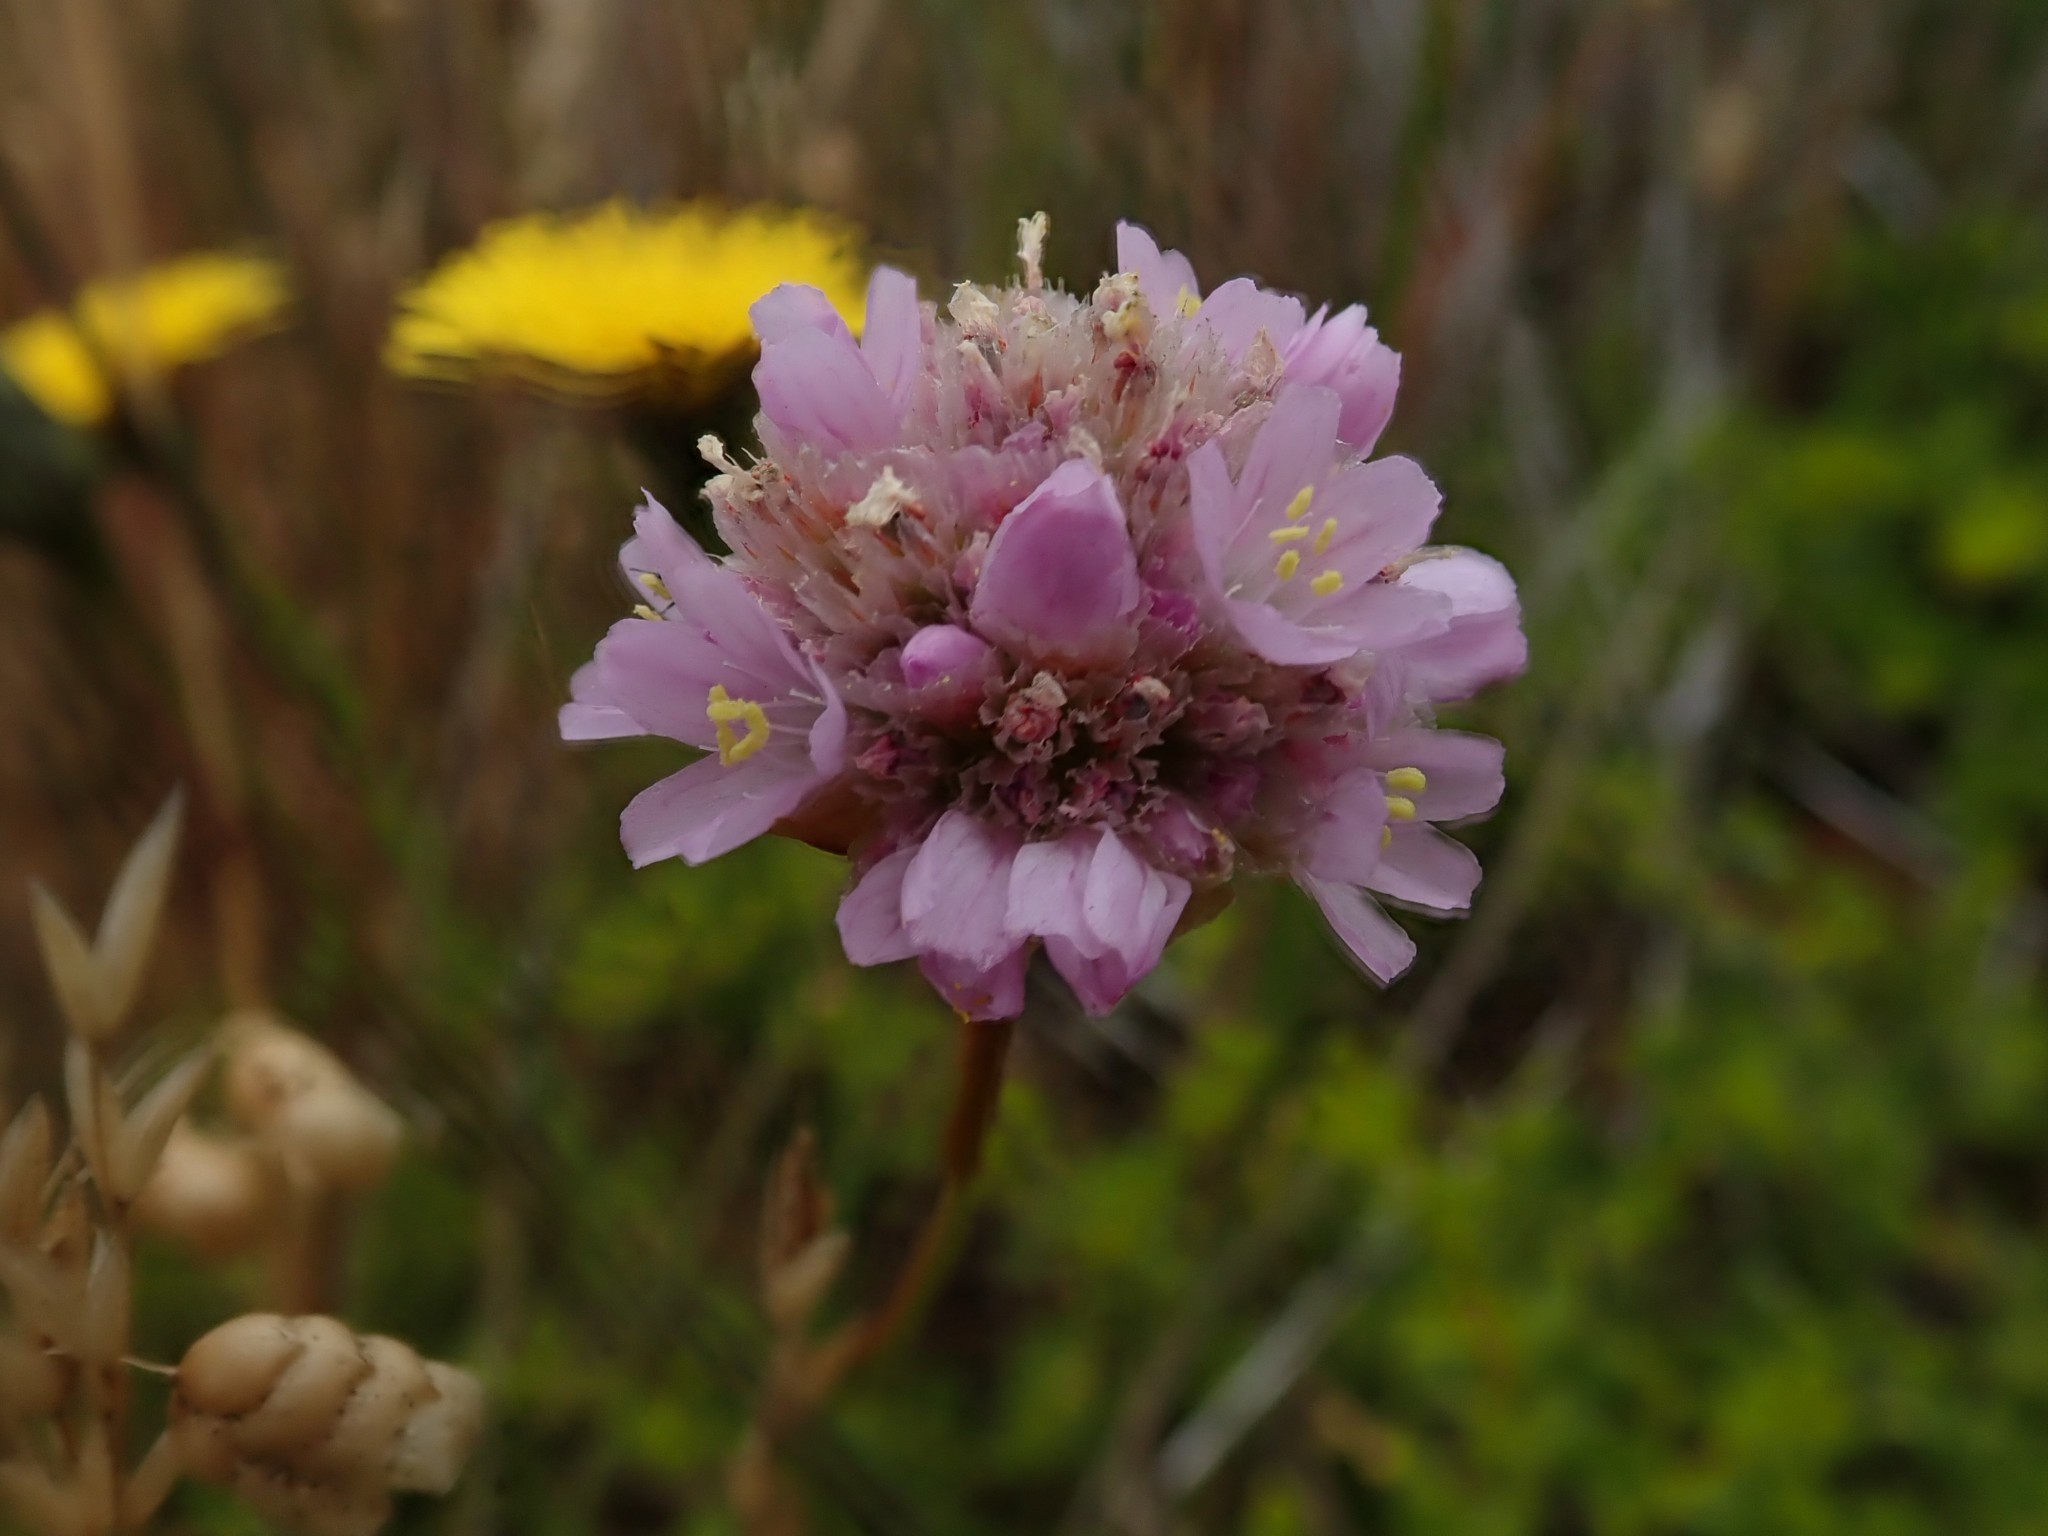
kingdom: Plantae
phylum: Tracheophyta
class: Magnoliopsida
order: Caryophyllales
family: Plumbaginaceae
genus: Armeria
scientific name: Armeria maritima
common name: Thrift
